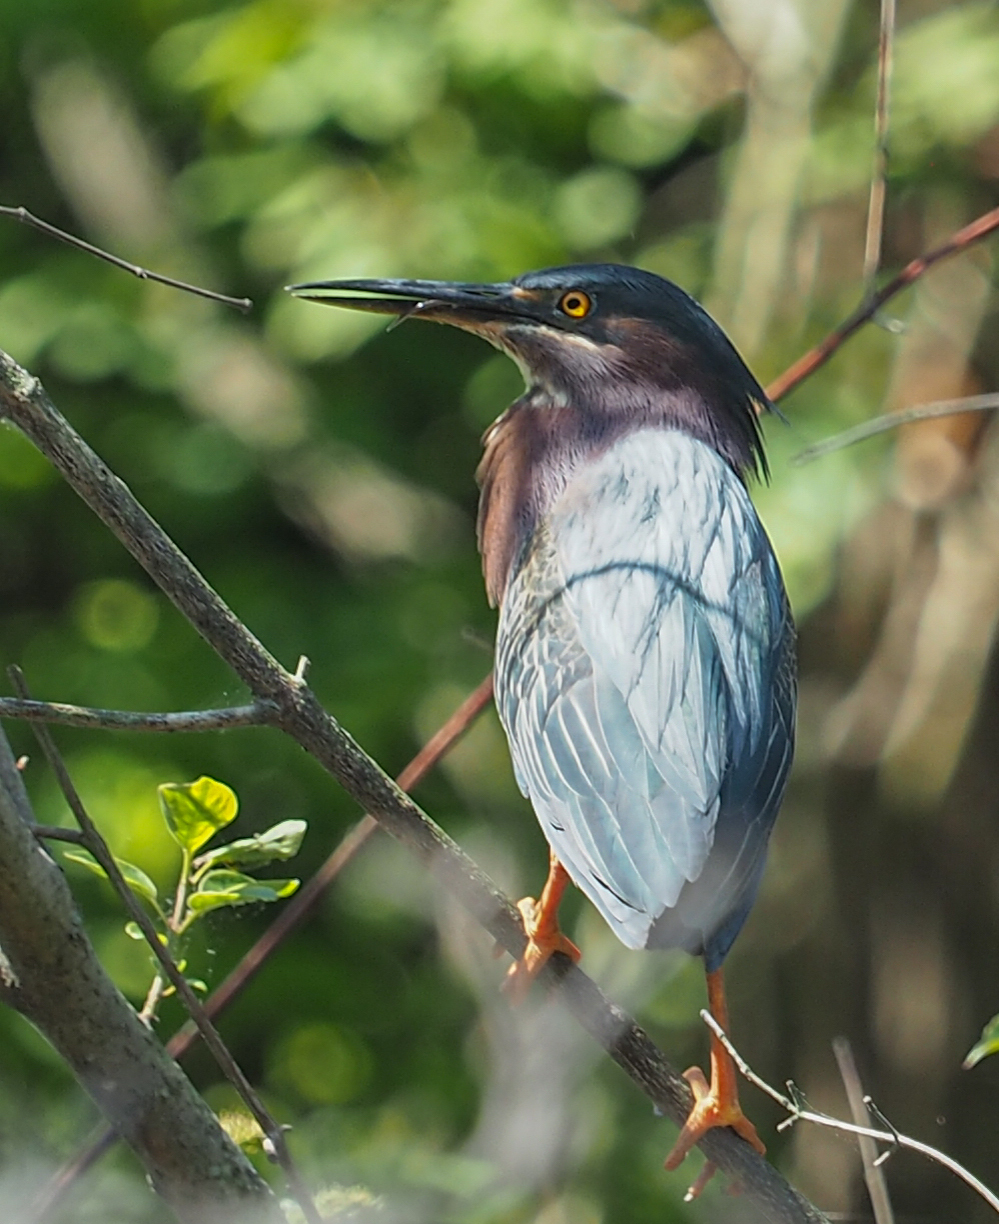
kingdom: Animalia
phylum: Chordata
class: Aves
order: Pelecaniformes
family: Ardeidae
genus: Butorides
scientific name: Butorides virescens
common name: Green heron
